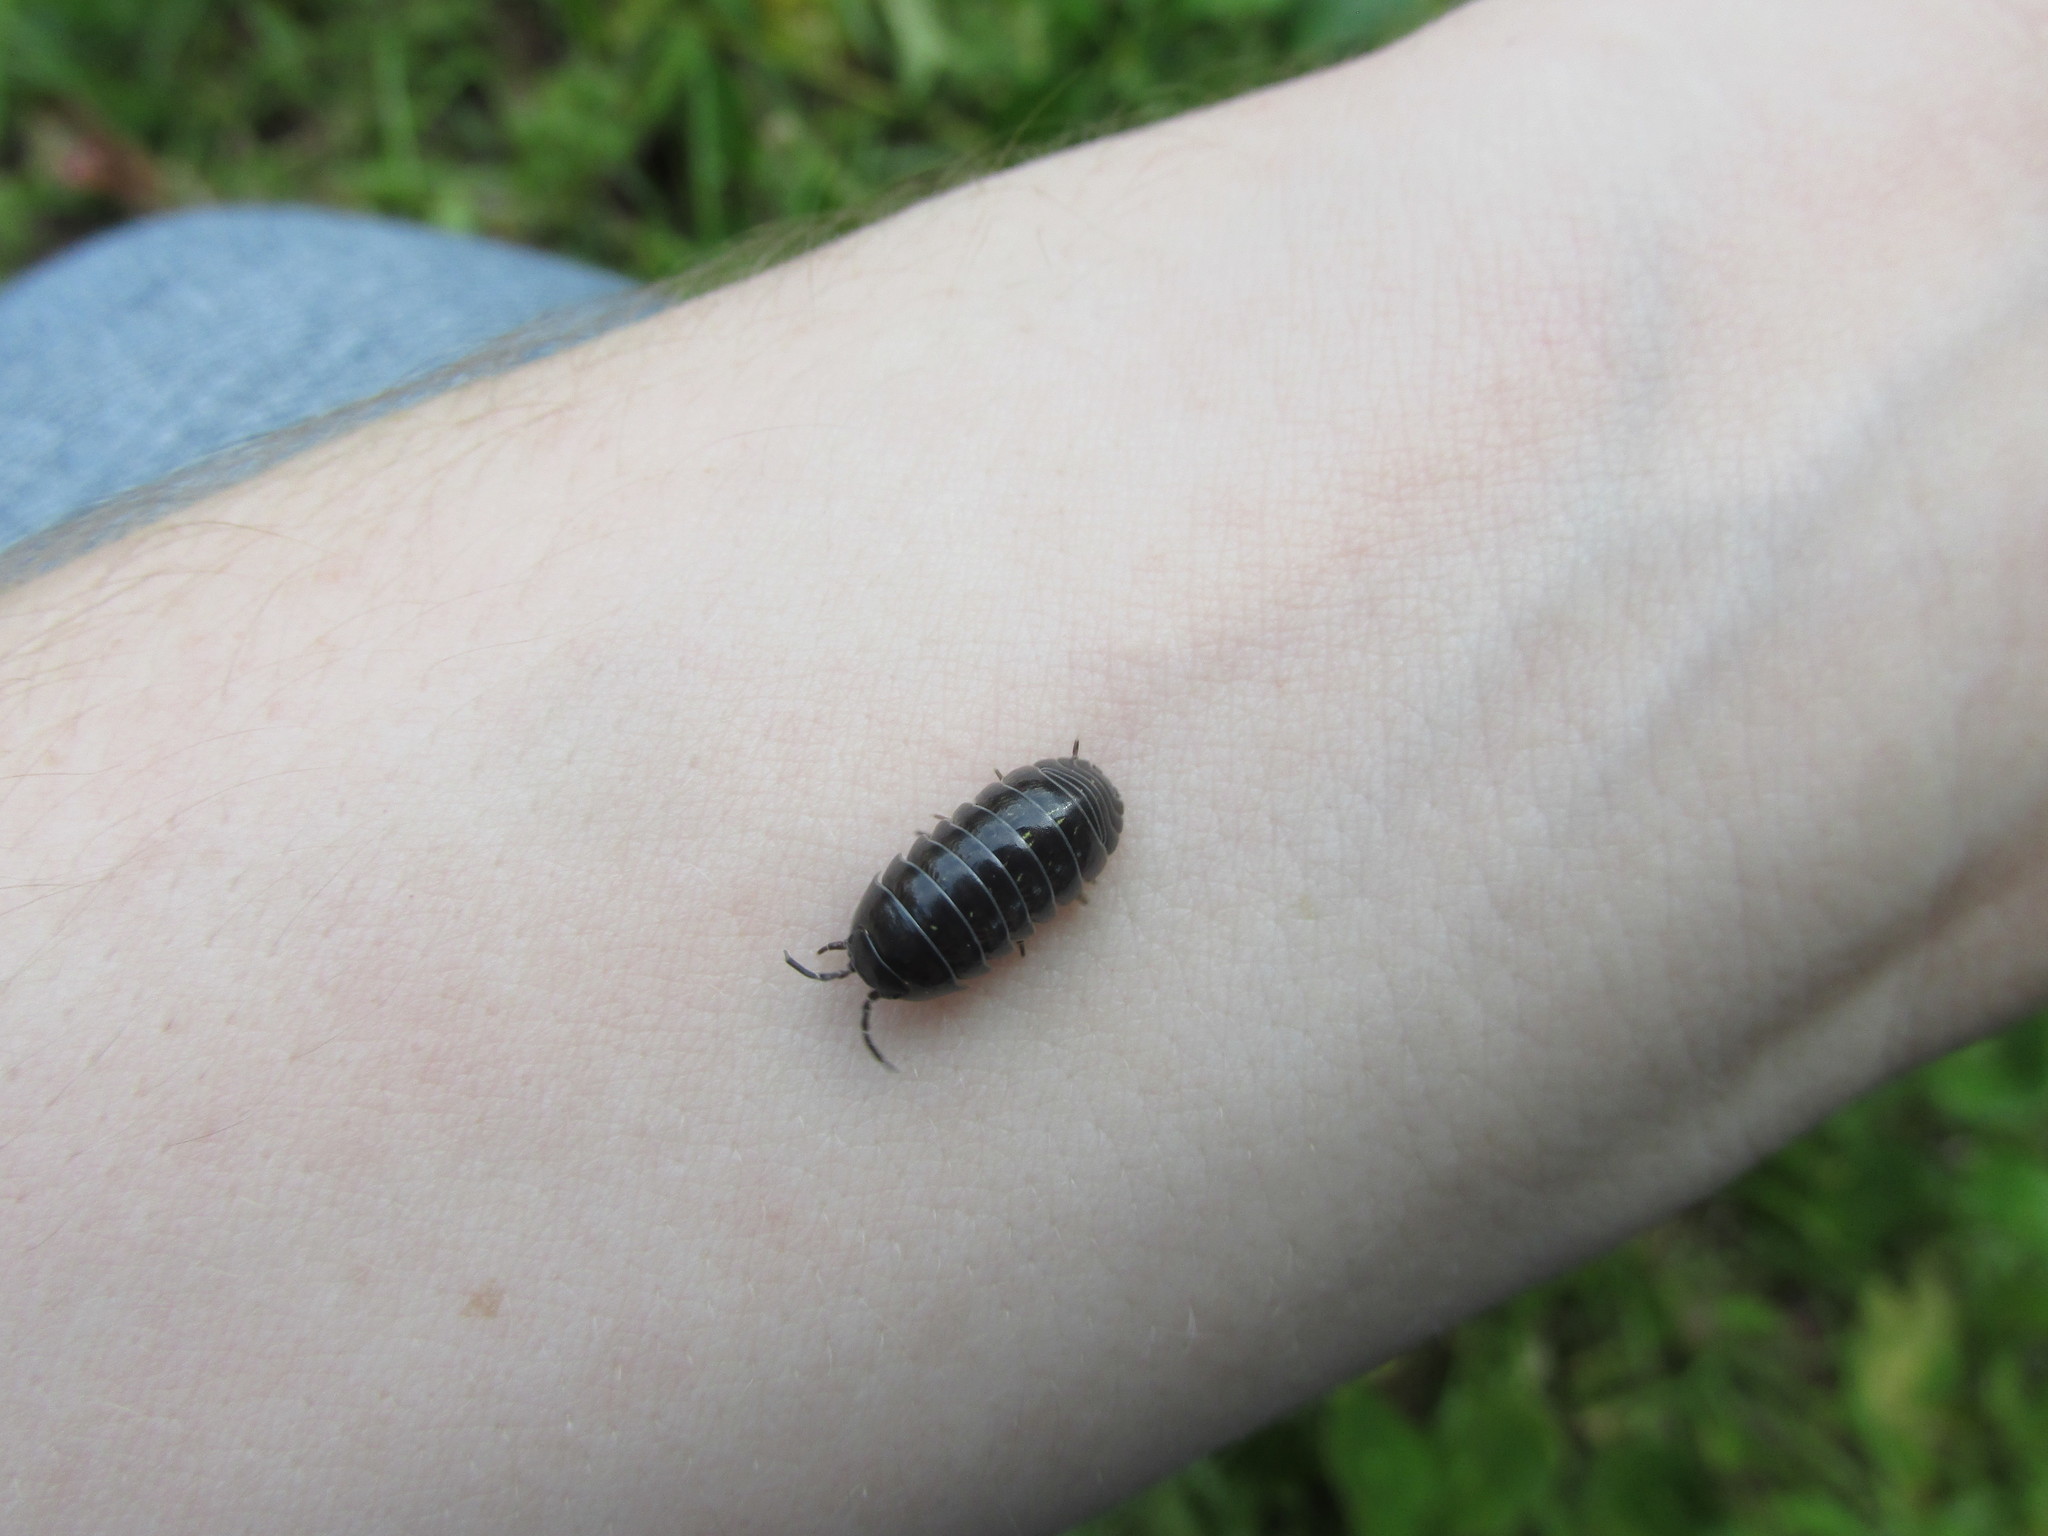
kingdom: Animalia
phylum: Arthropoda
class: Malacostraca
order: Isopoda
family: Armadillidiidae
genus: Armadillidium
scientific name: Armadillidium vulgare
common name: Common pill woodlouse
